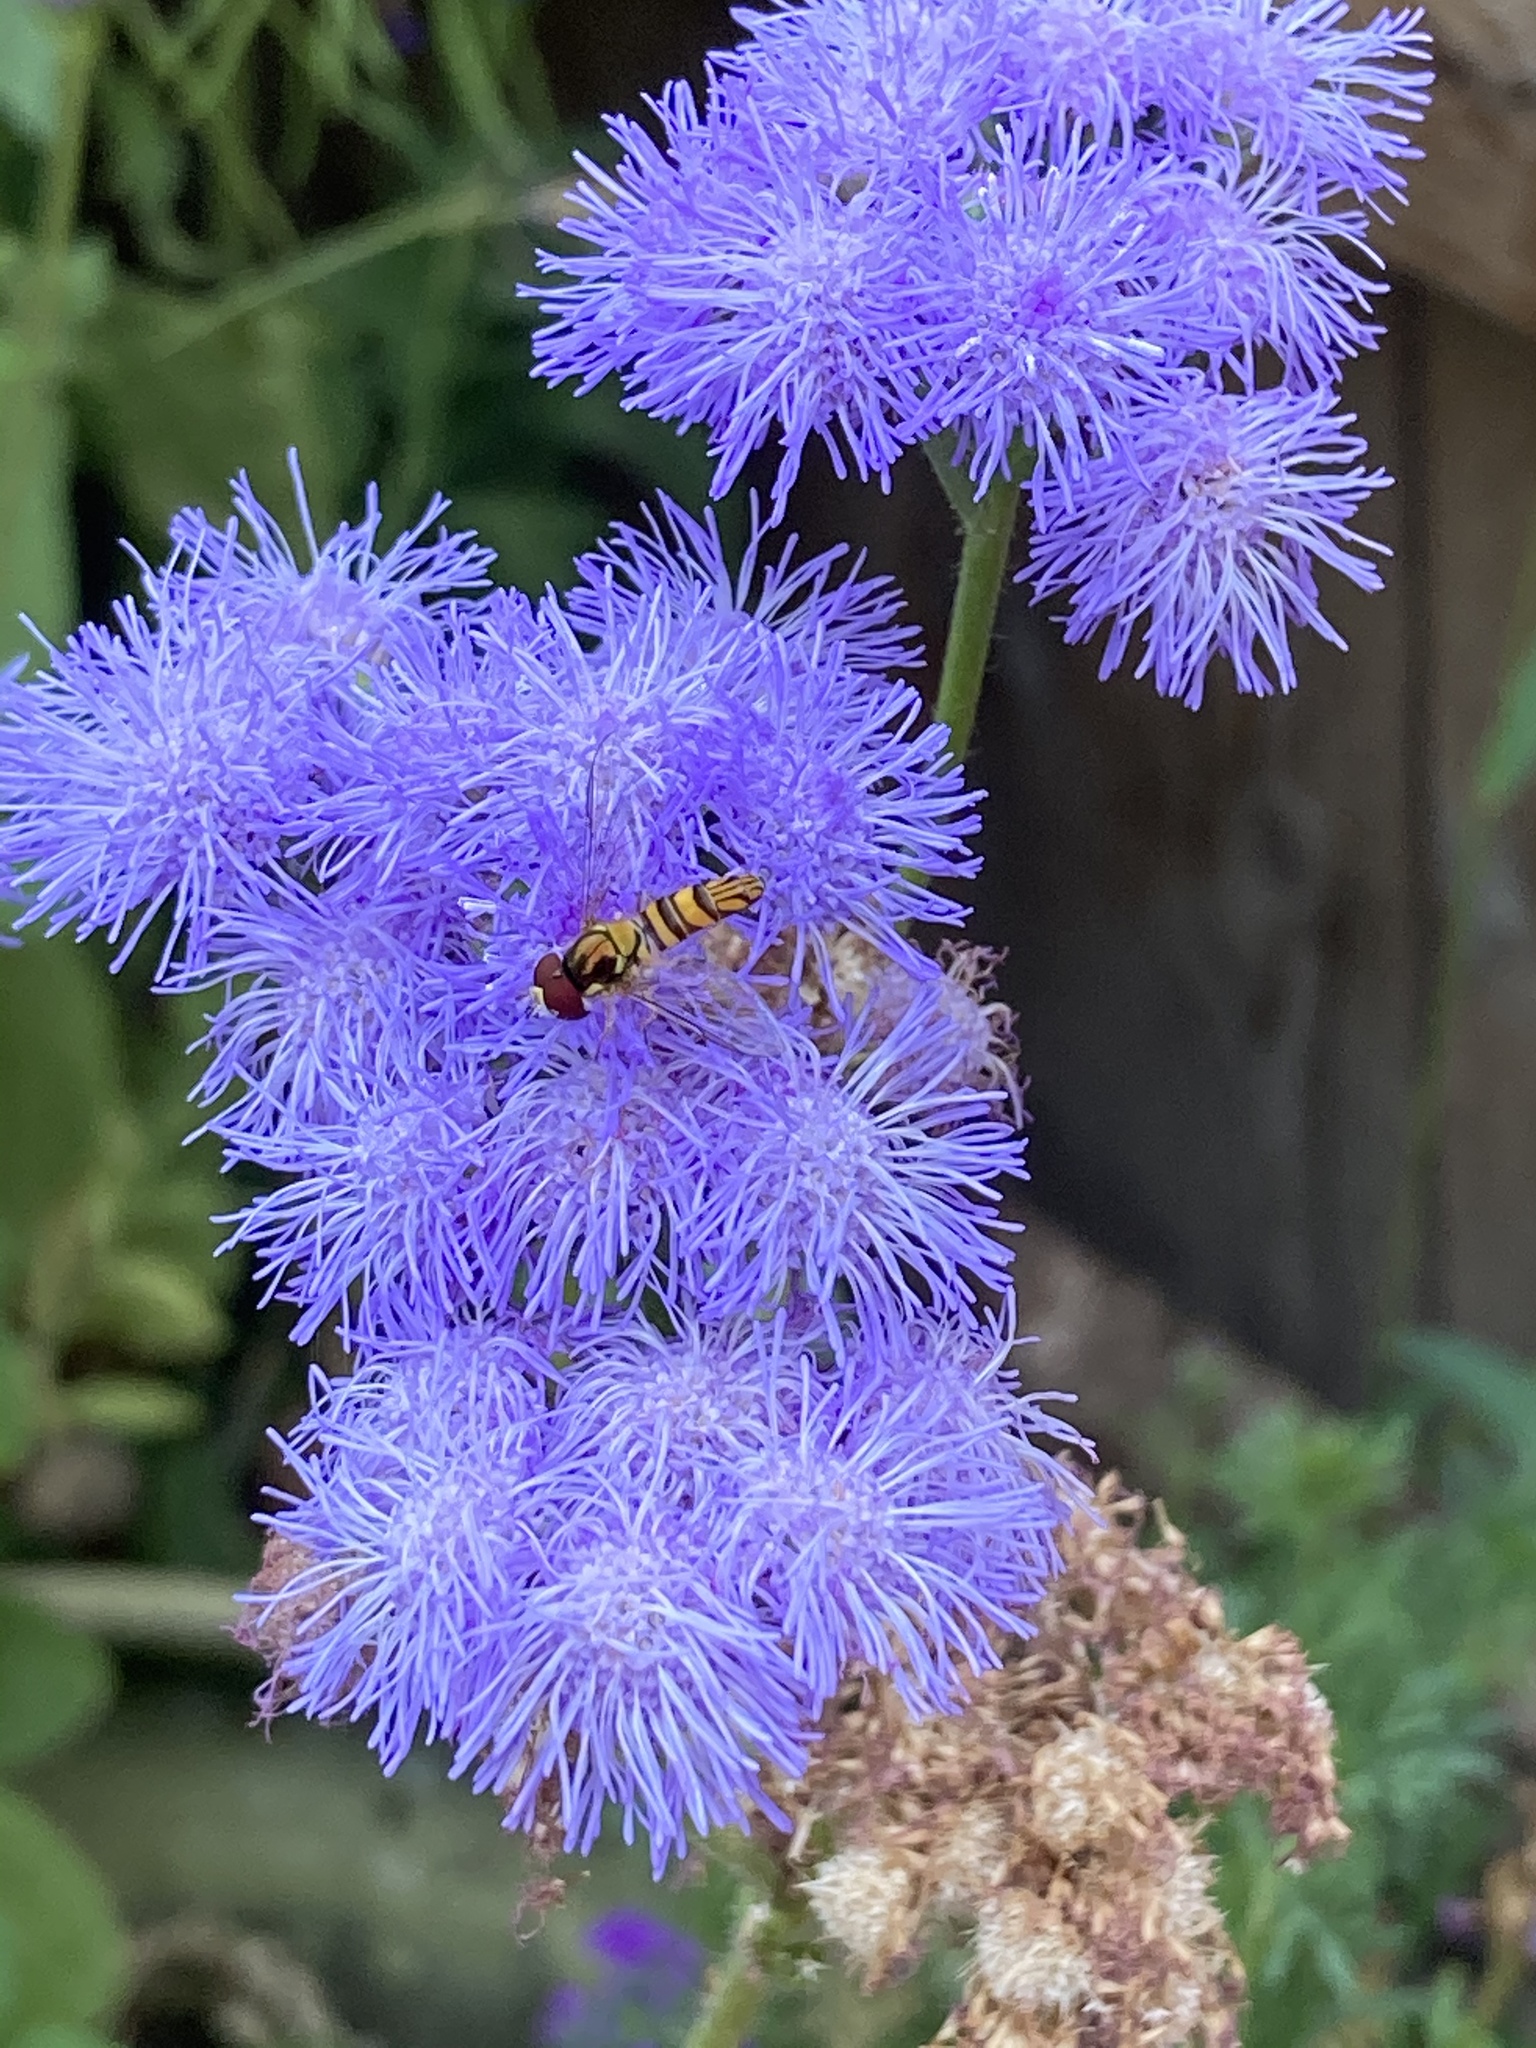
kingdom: Animalia
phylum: Arthropoda
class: Insecta
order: Diptera
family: Syrphidae
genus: Allograpta
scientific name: Allograpta obliqua
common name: Common oblique syrphid
